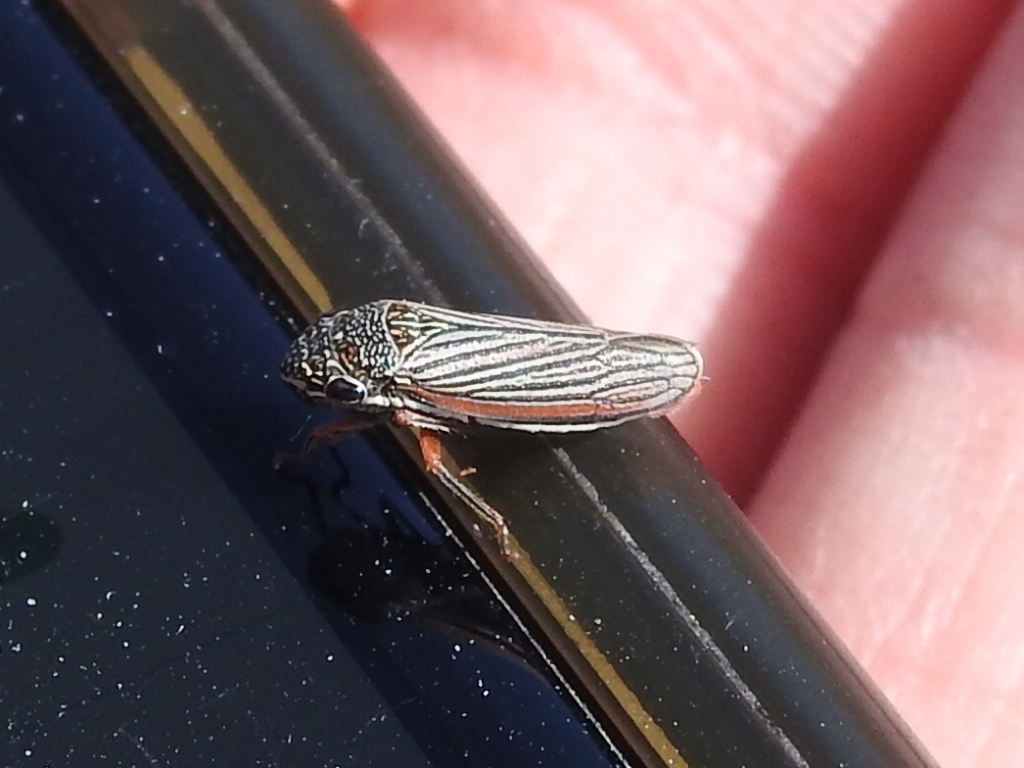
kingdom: Animalia
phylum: Arthropoda
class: Insecta
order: Hemiptera
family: Cicadellidae
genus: Cuerna
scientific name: Cuerna costalis
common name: Lateral-lined sharpshooter
